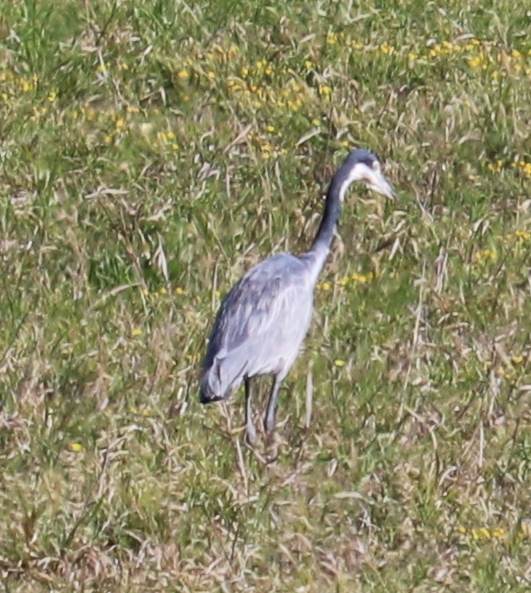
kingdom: Animalia
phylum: Chordata
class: Aves
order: Pelecaniformes
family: Ardeidae
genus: Ardea
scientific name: Ardea melanocephala
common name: Black-headed heron
